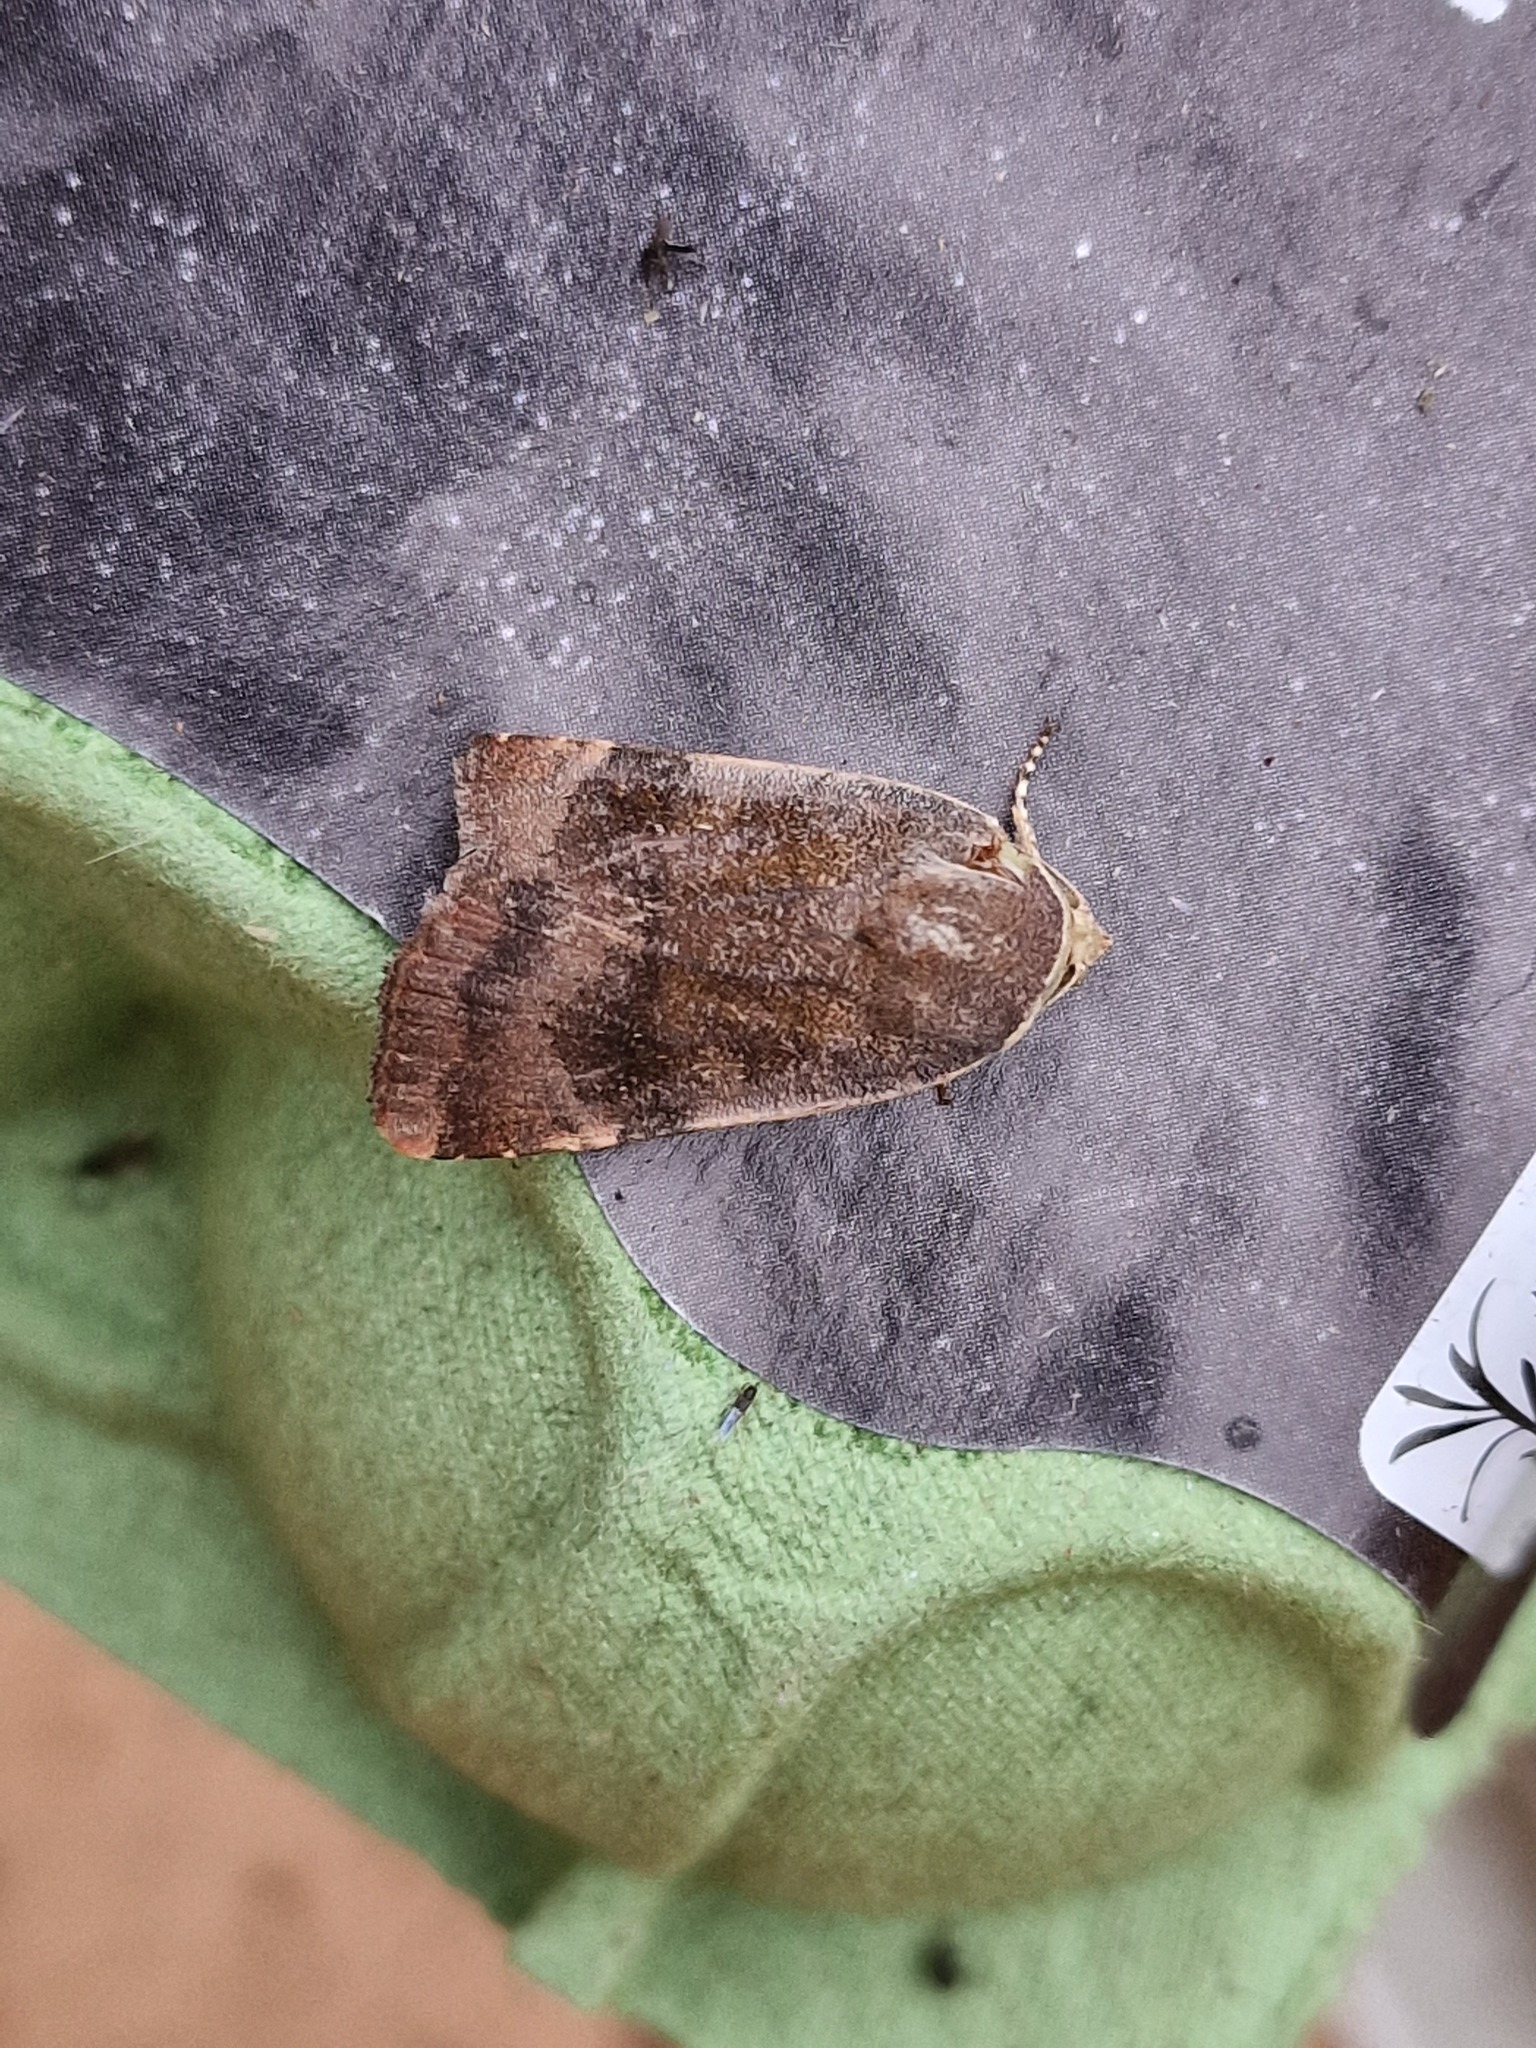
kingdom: Animalia
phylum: Arthropoda
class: Insecta
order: Lepidoptera
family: Noctuidae
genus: Noctua
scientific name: Noctua
